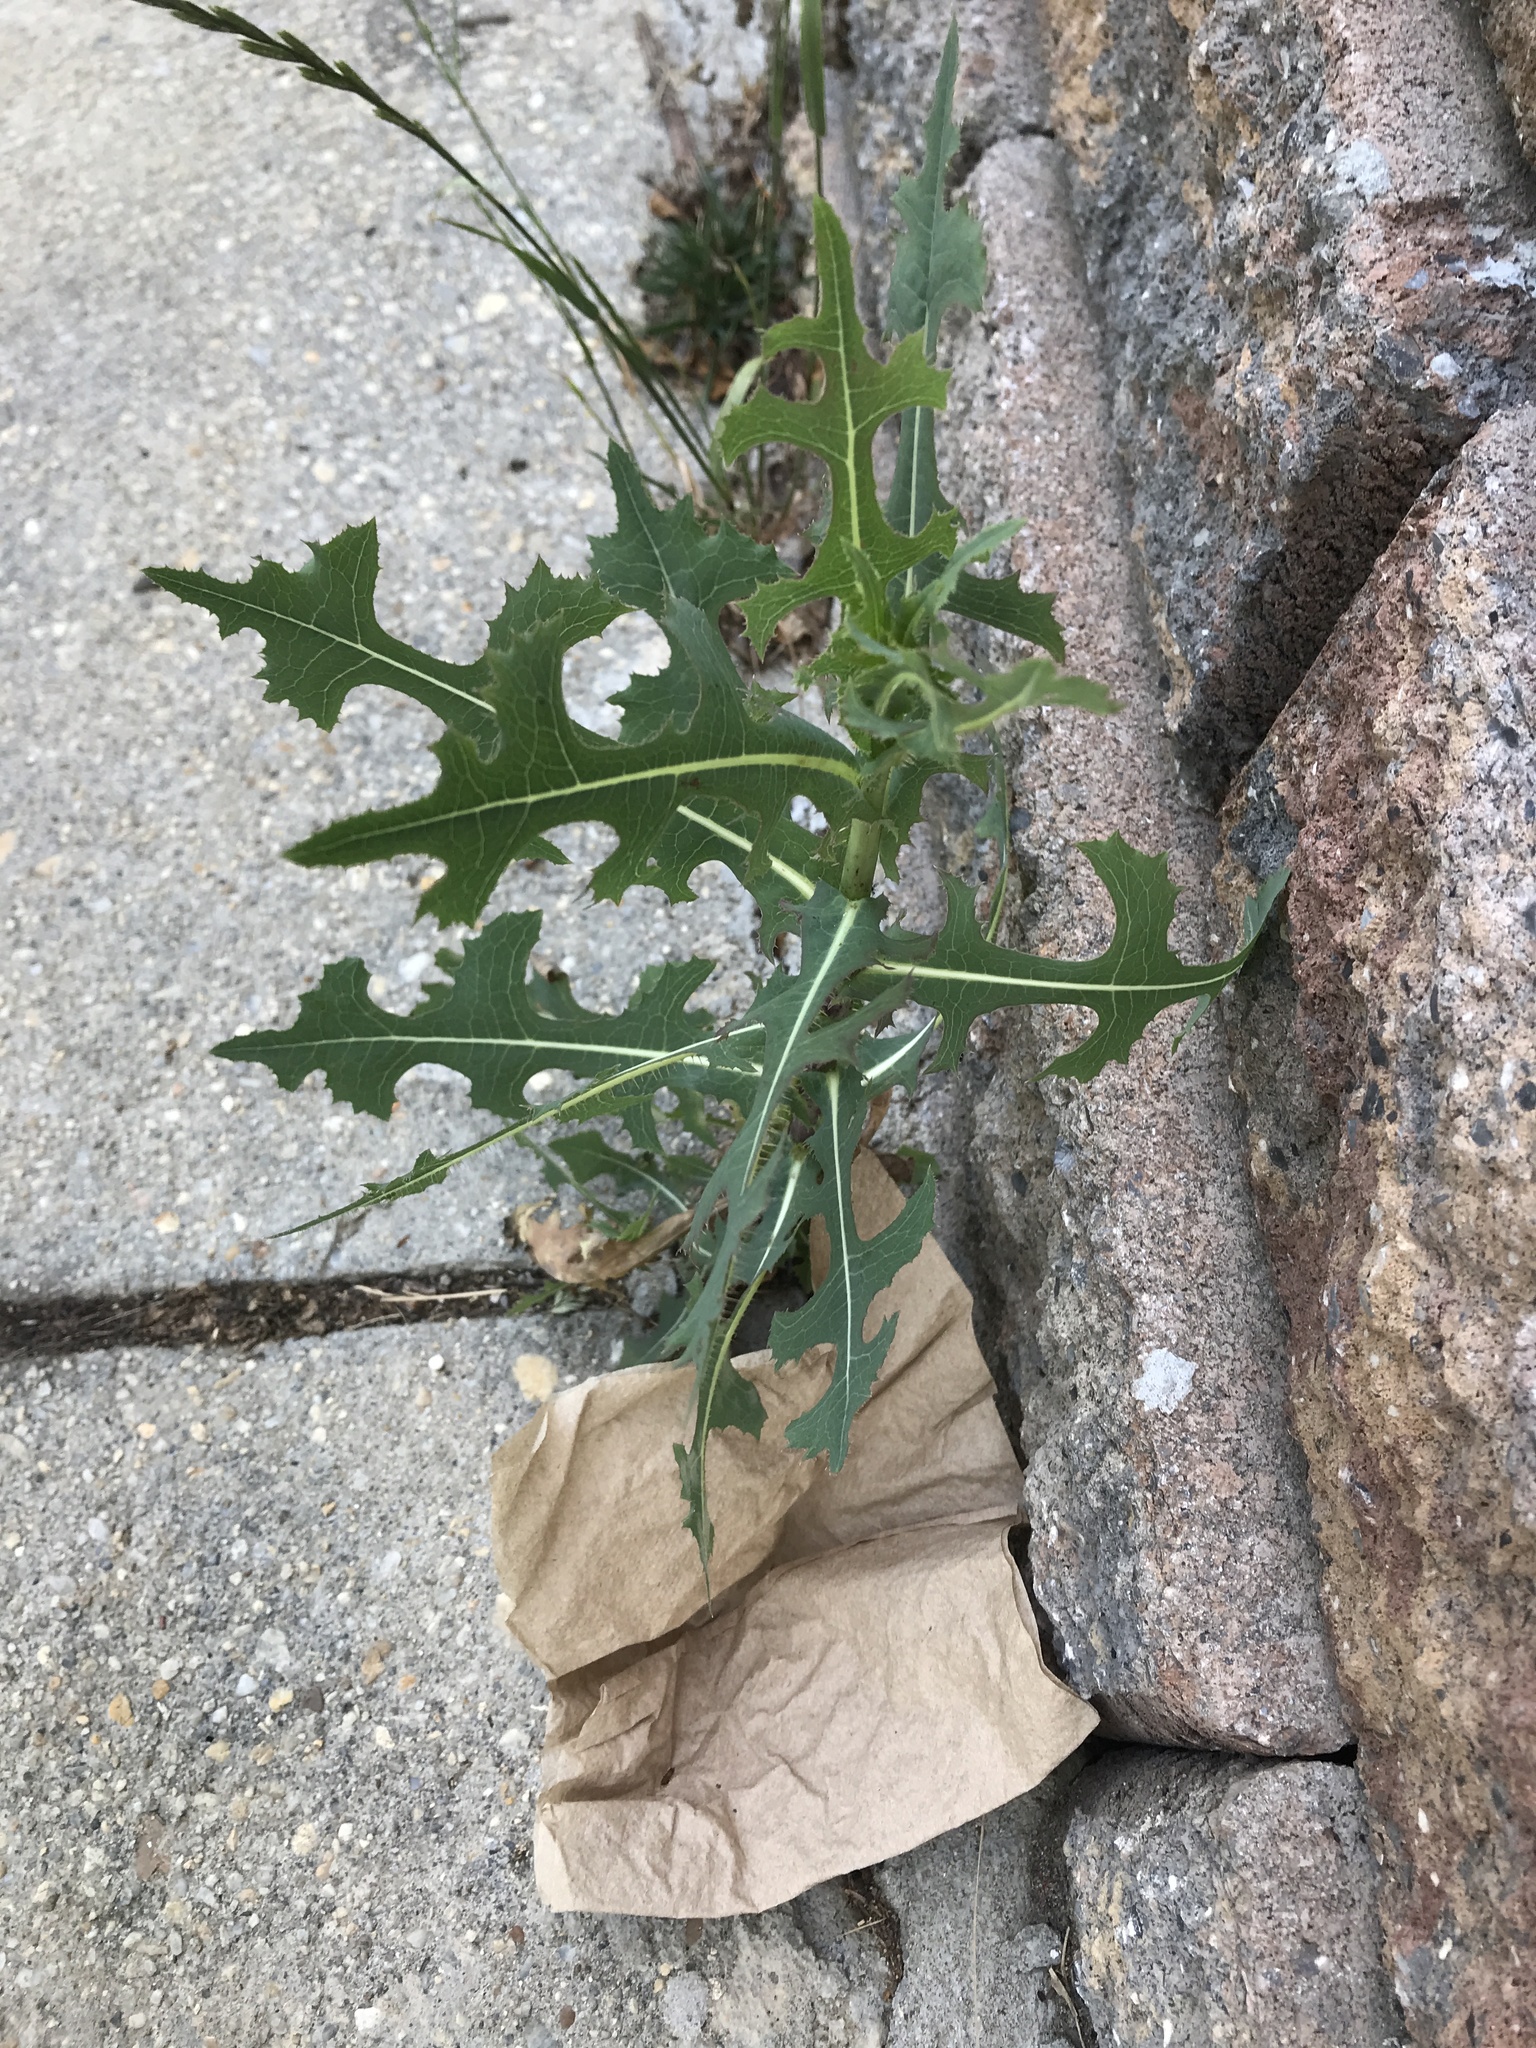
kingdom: Plantae
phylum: Tracheophyta
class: Magnoliopsida
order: Asterales
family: Asteraceae
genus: Lactuca
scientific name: Lactuca serriola
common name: Prickly lettuce
